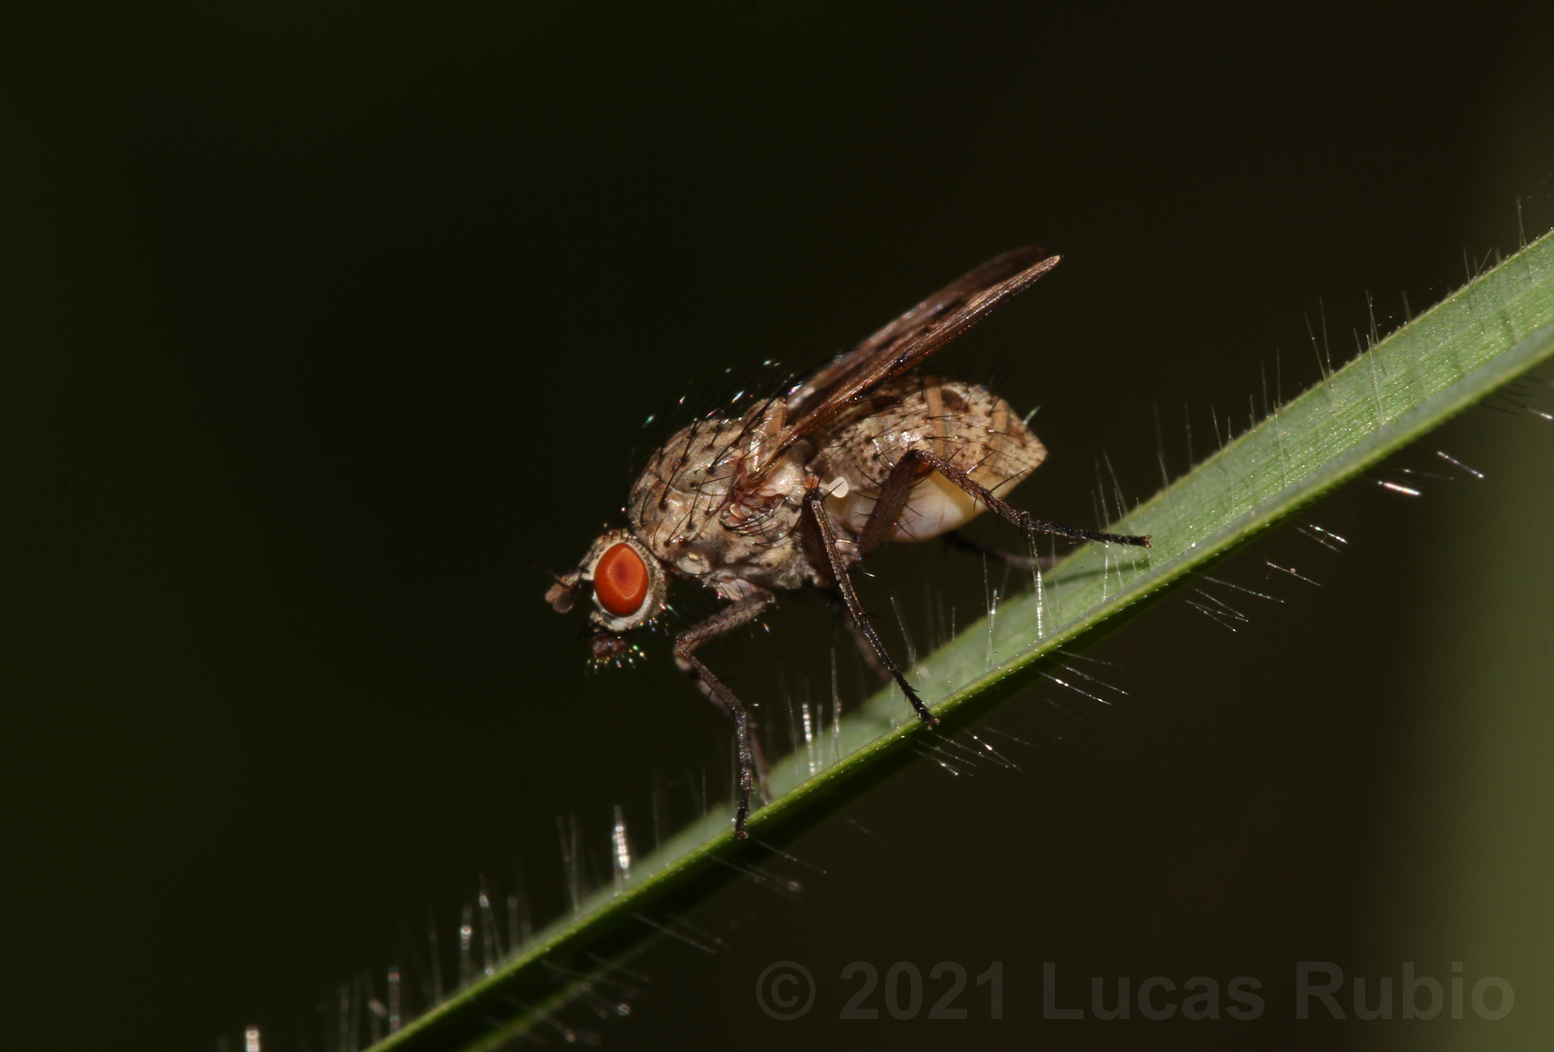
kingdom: Animalia
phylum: Arthropoda
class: Insecta
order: Diptera
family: Anthomyiidae
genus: Anthomyia
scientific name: Anthomyia
